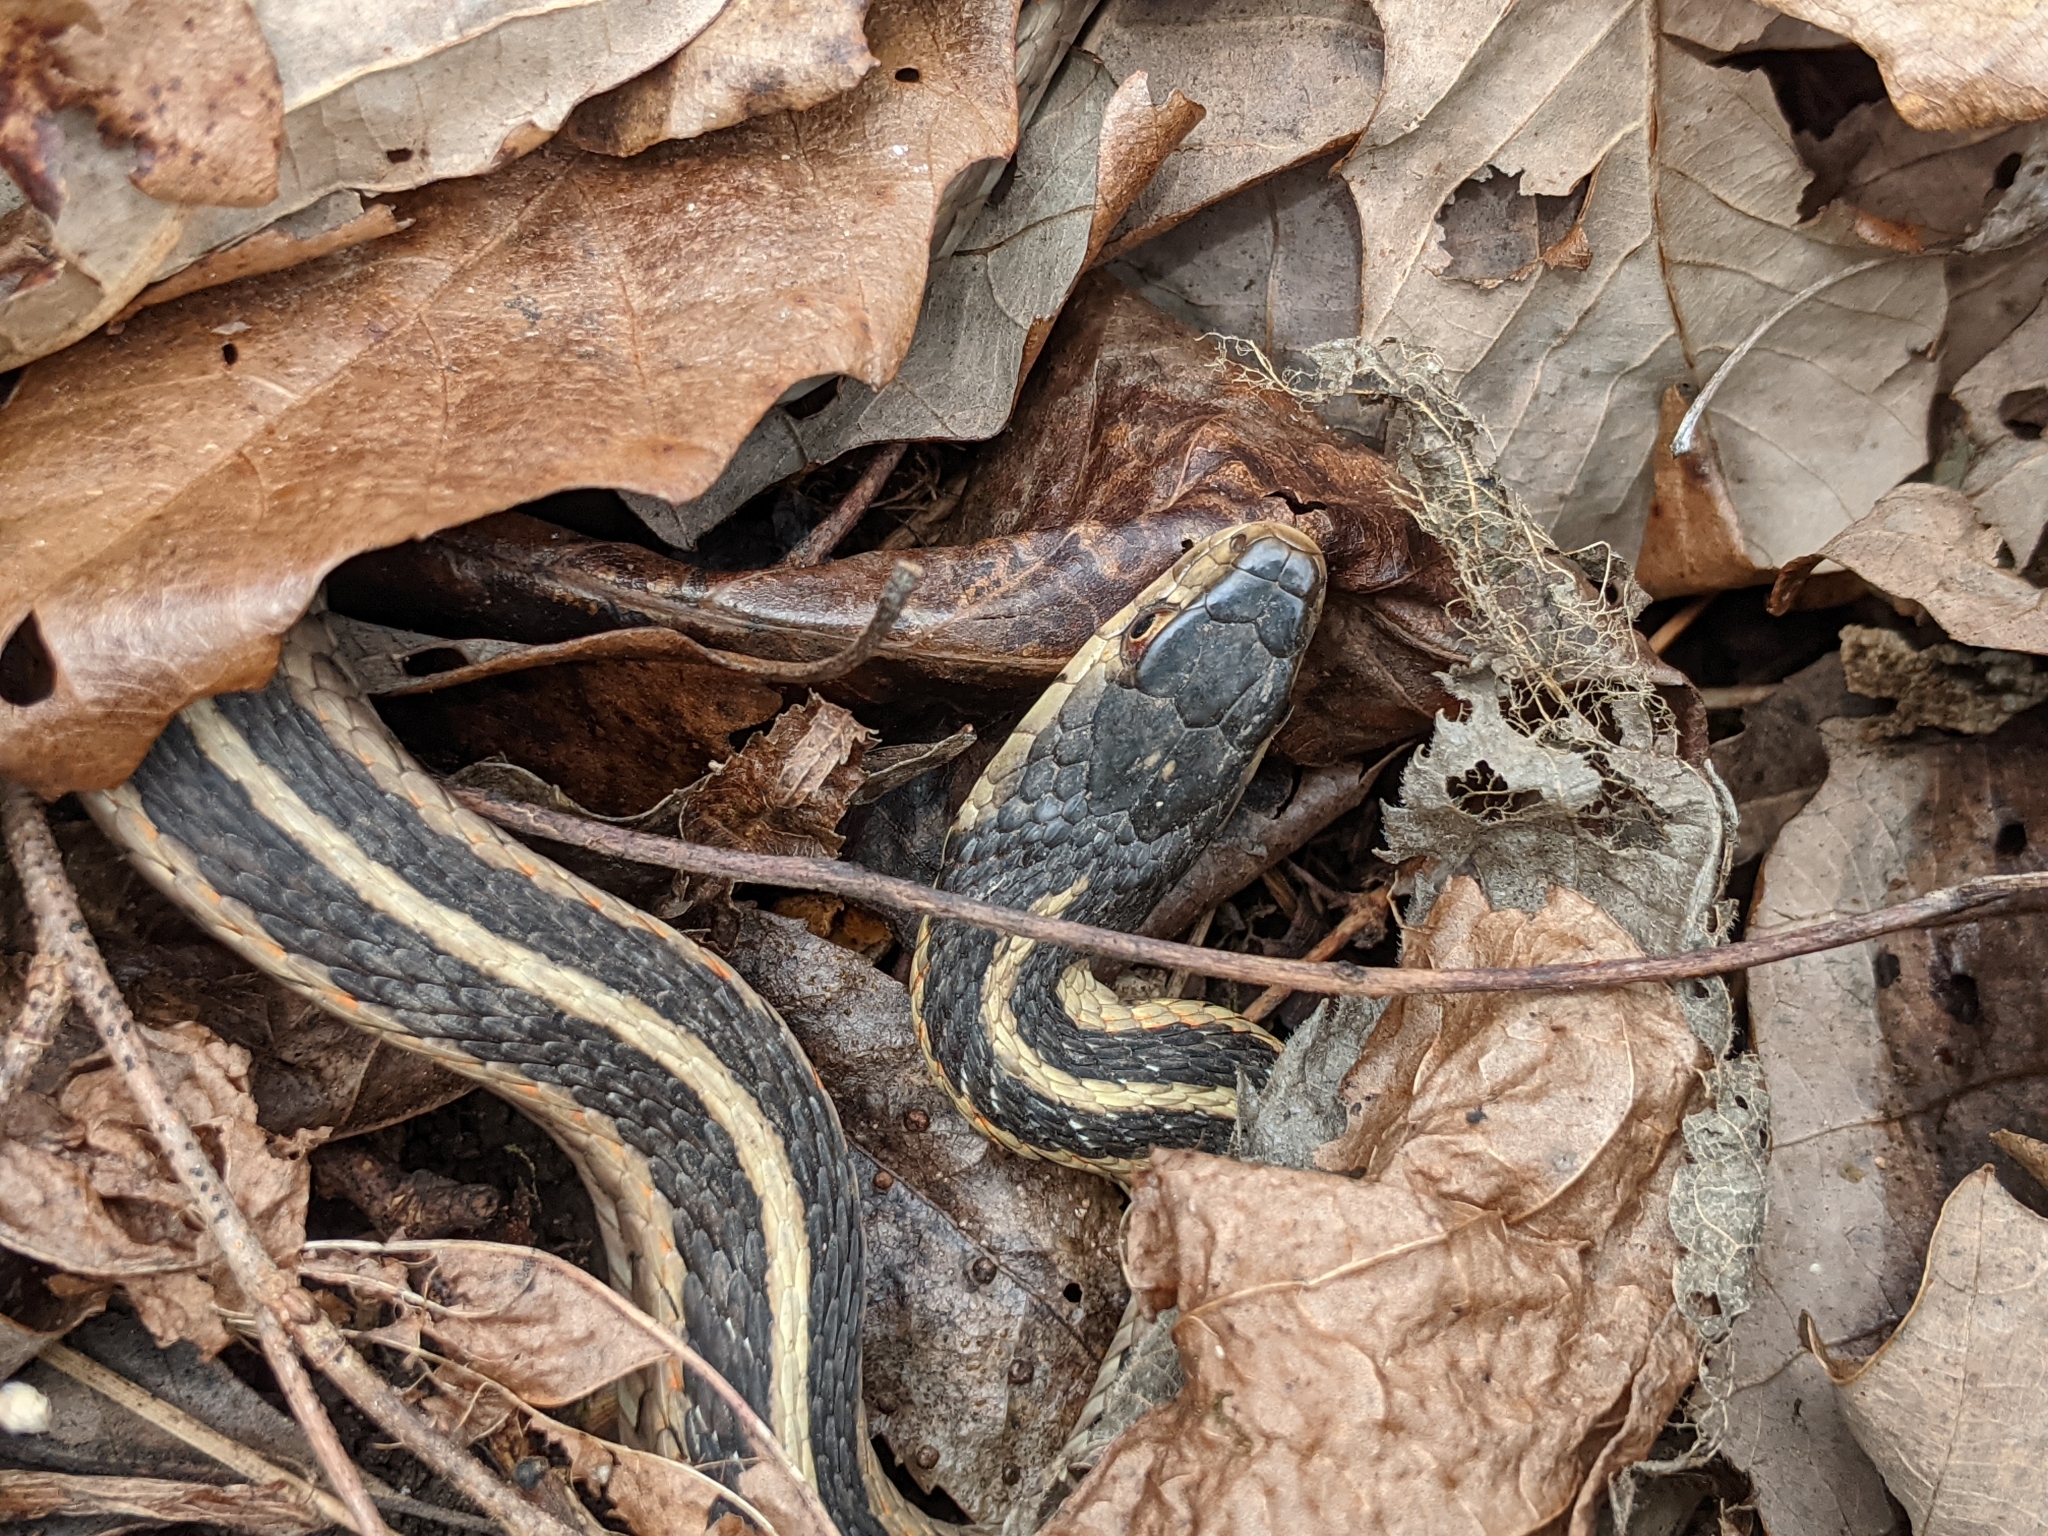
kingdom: Animalia
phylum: Chordata
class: Squamata
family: Colubridae
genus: Thamnophis
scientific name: Thamnophis sirtalis
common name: Common garter snake
